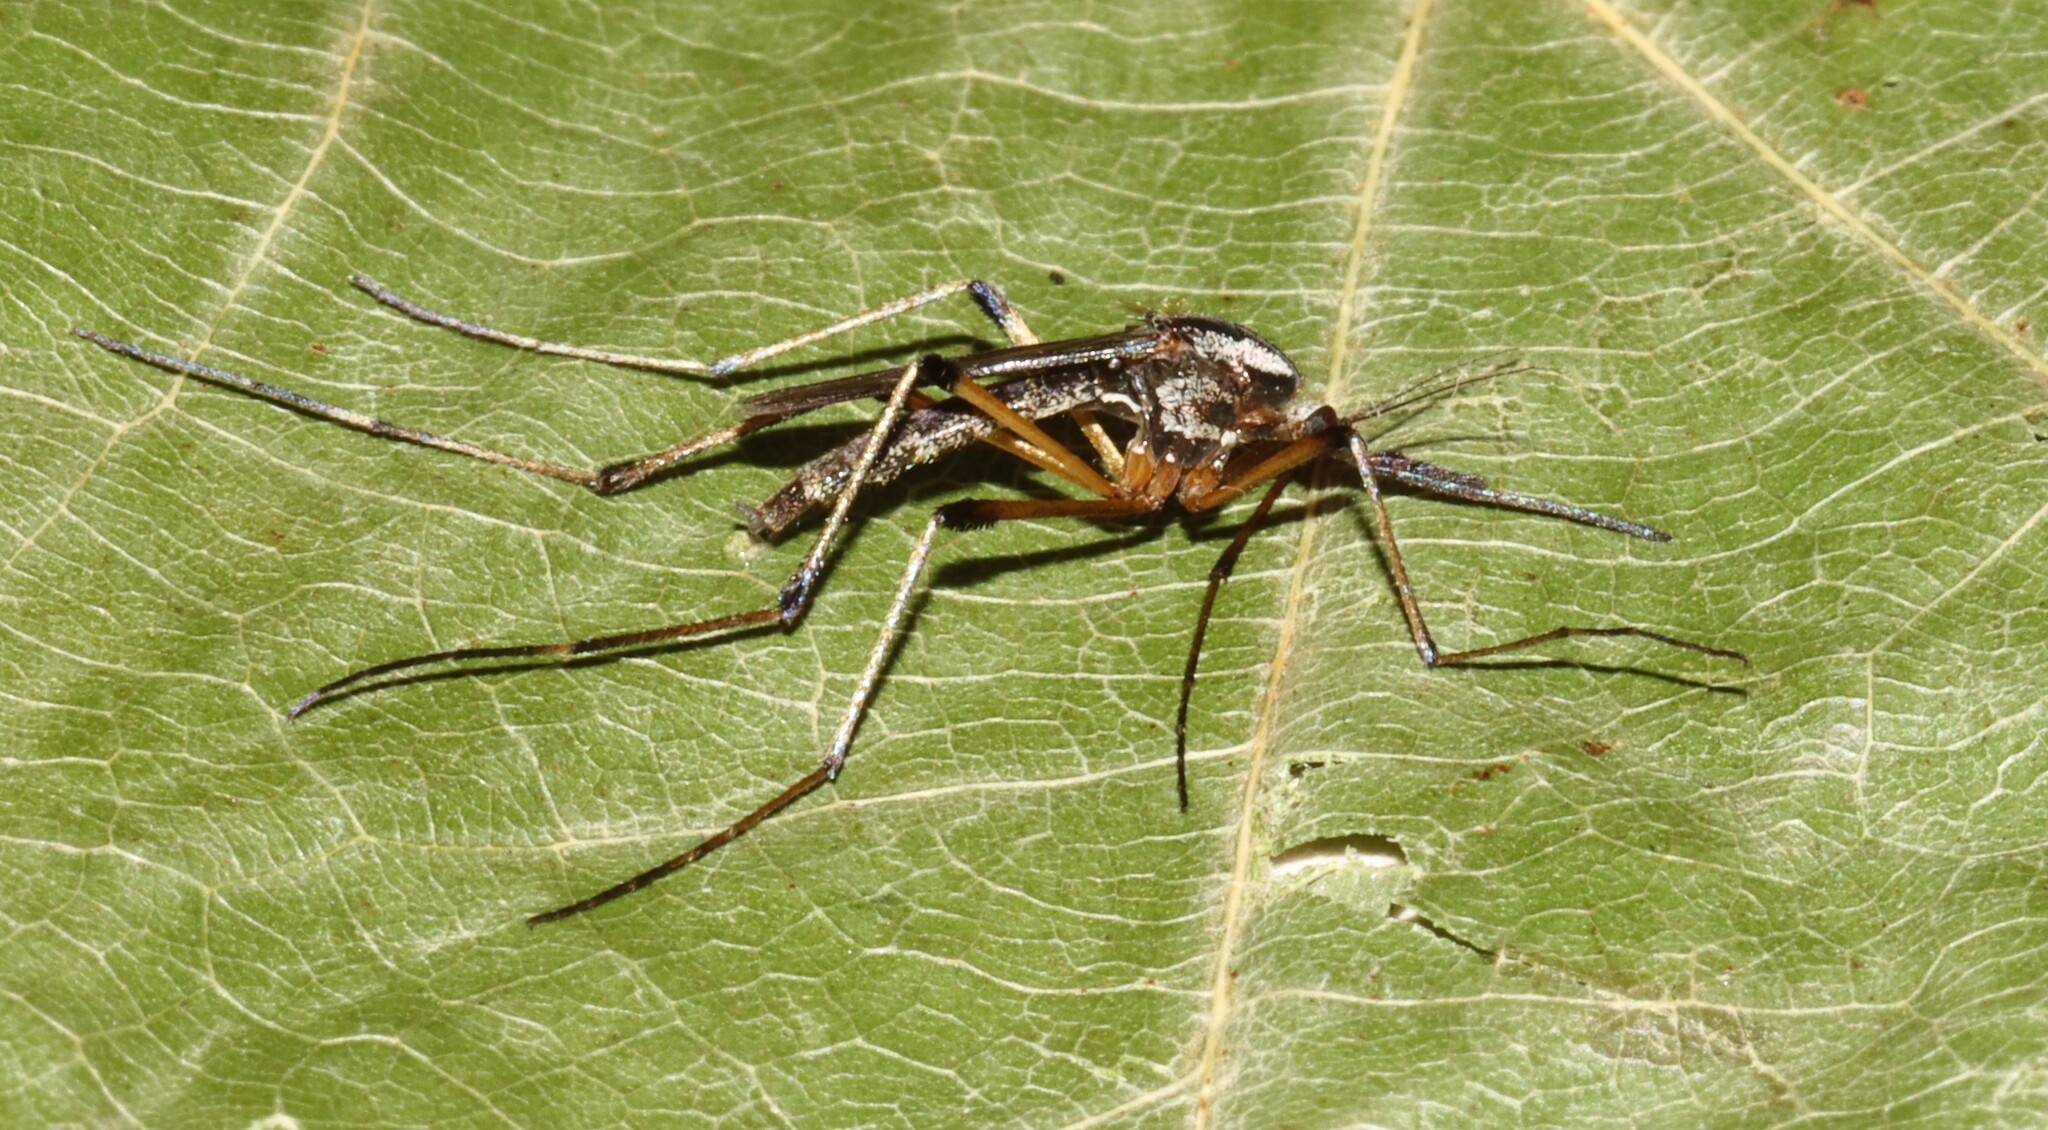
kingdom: Animalia
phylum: Arthropoda
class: Insecta
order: Diptera
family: Culicidae
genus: Psorophora
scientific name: Psorophora howardii
